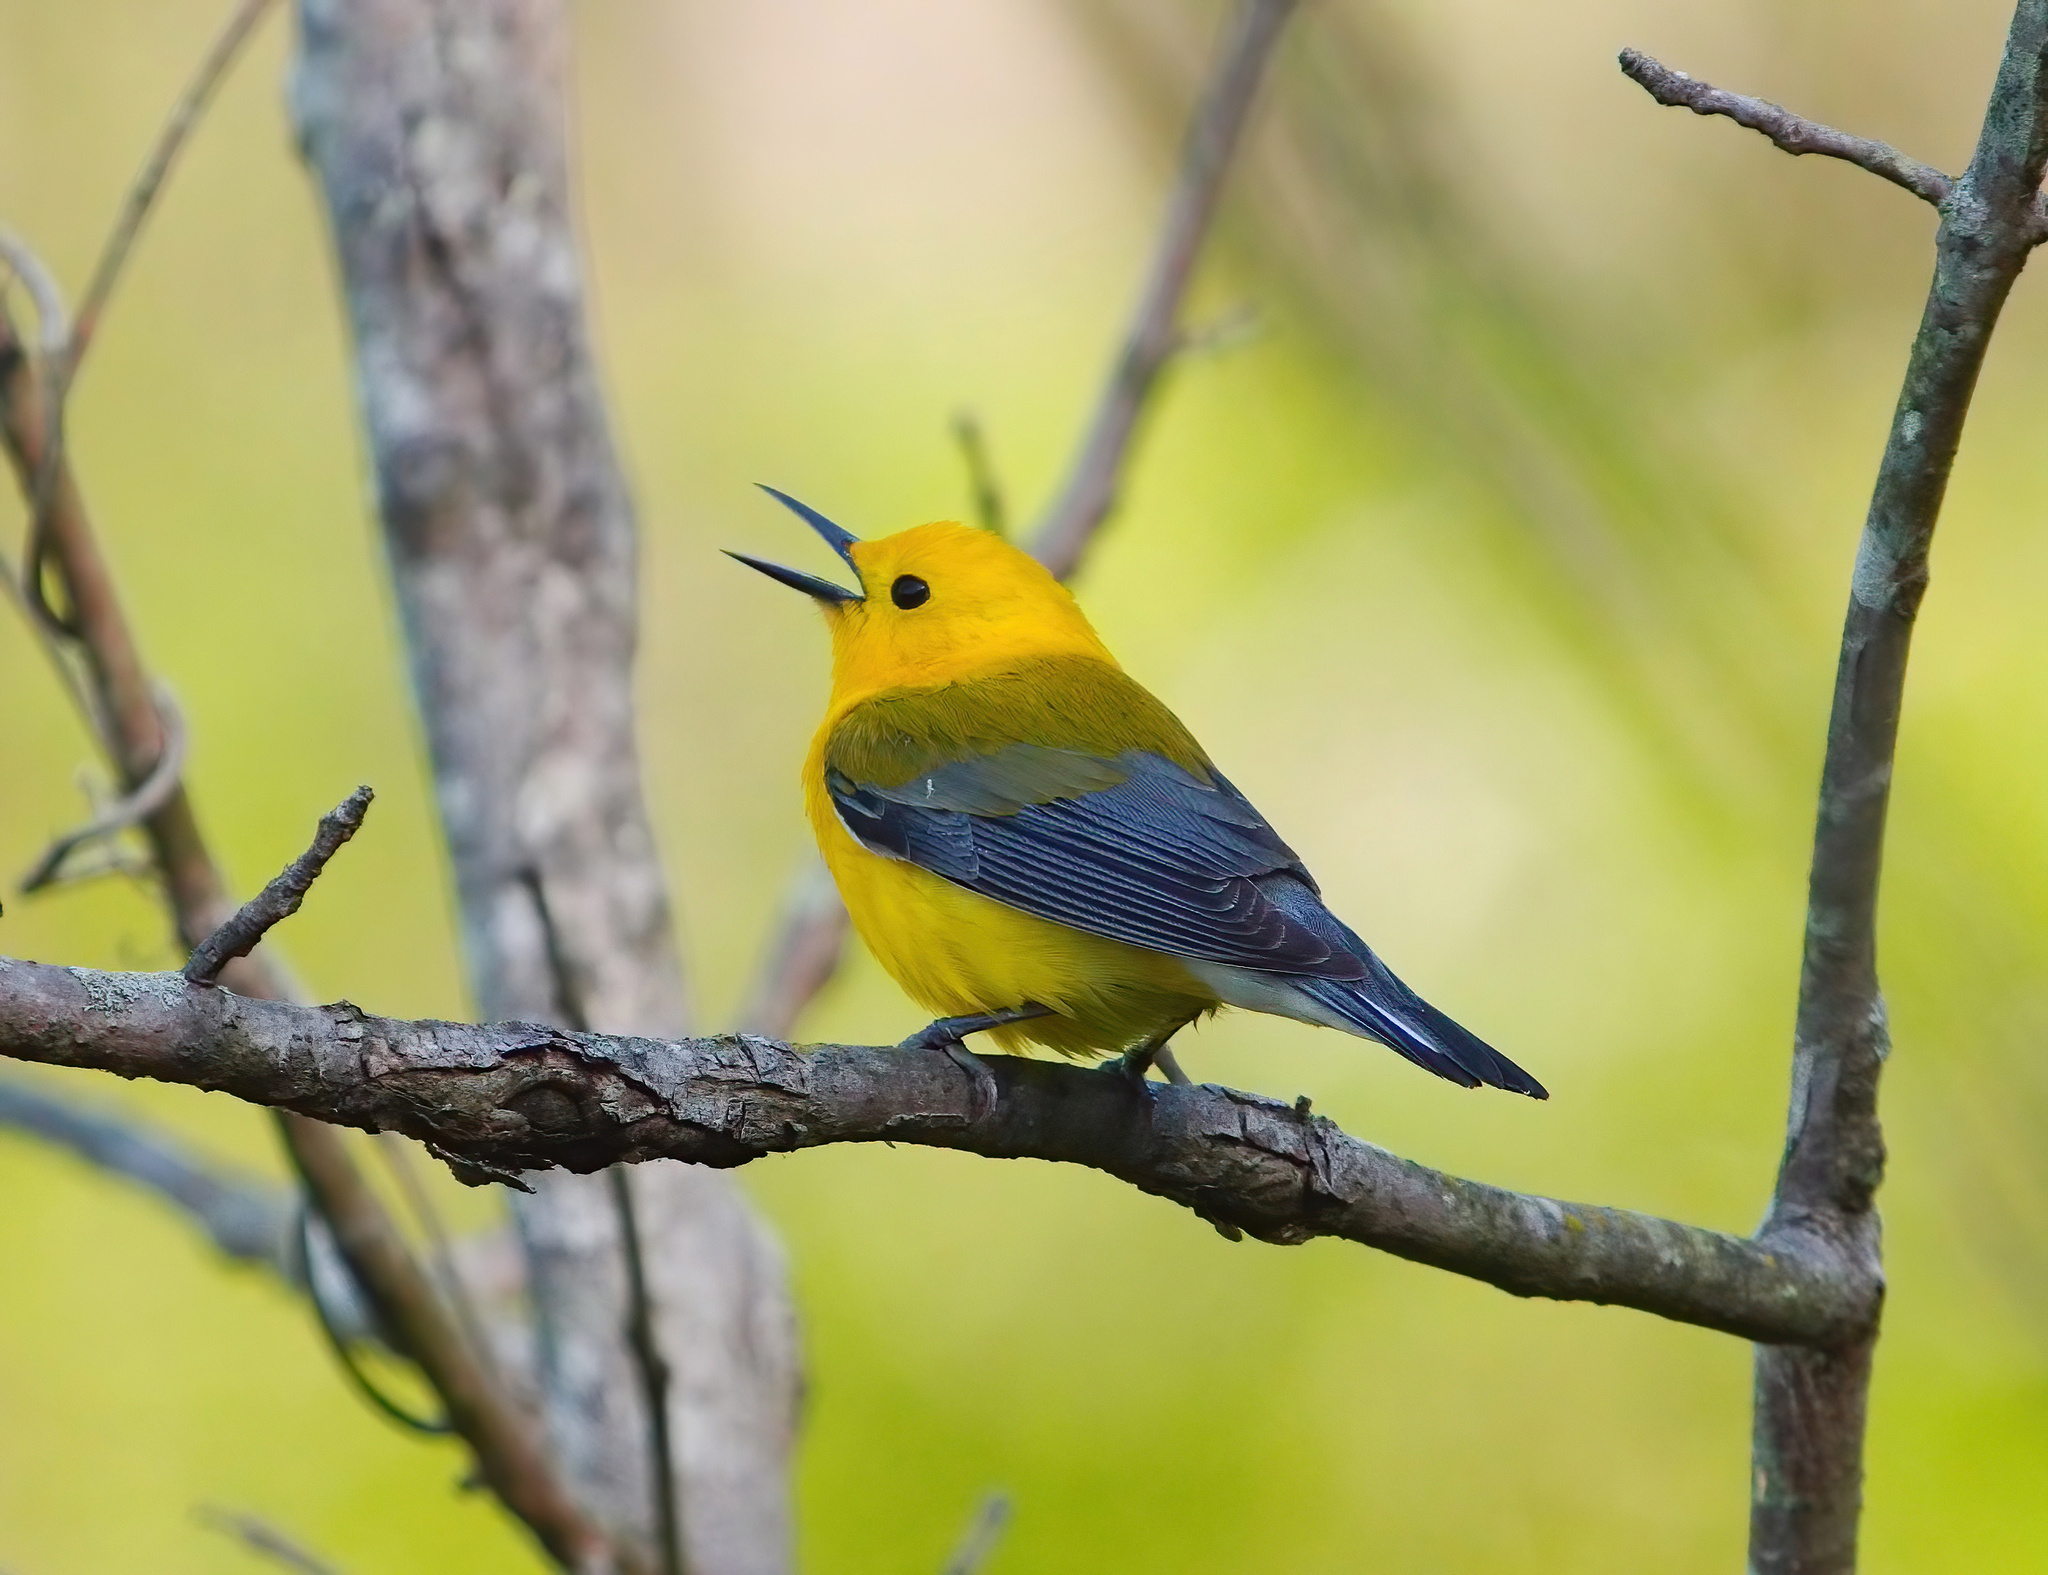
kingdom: Animalia
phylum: Chordata
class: Aves
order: Passeriformes
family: Parulidae
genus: Protonotaria
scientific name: Protonotaria citrea
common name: Prothonotary warbler
